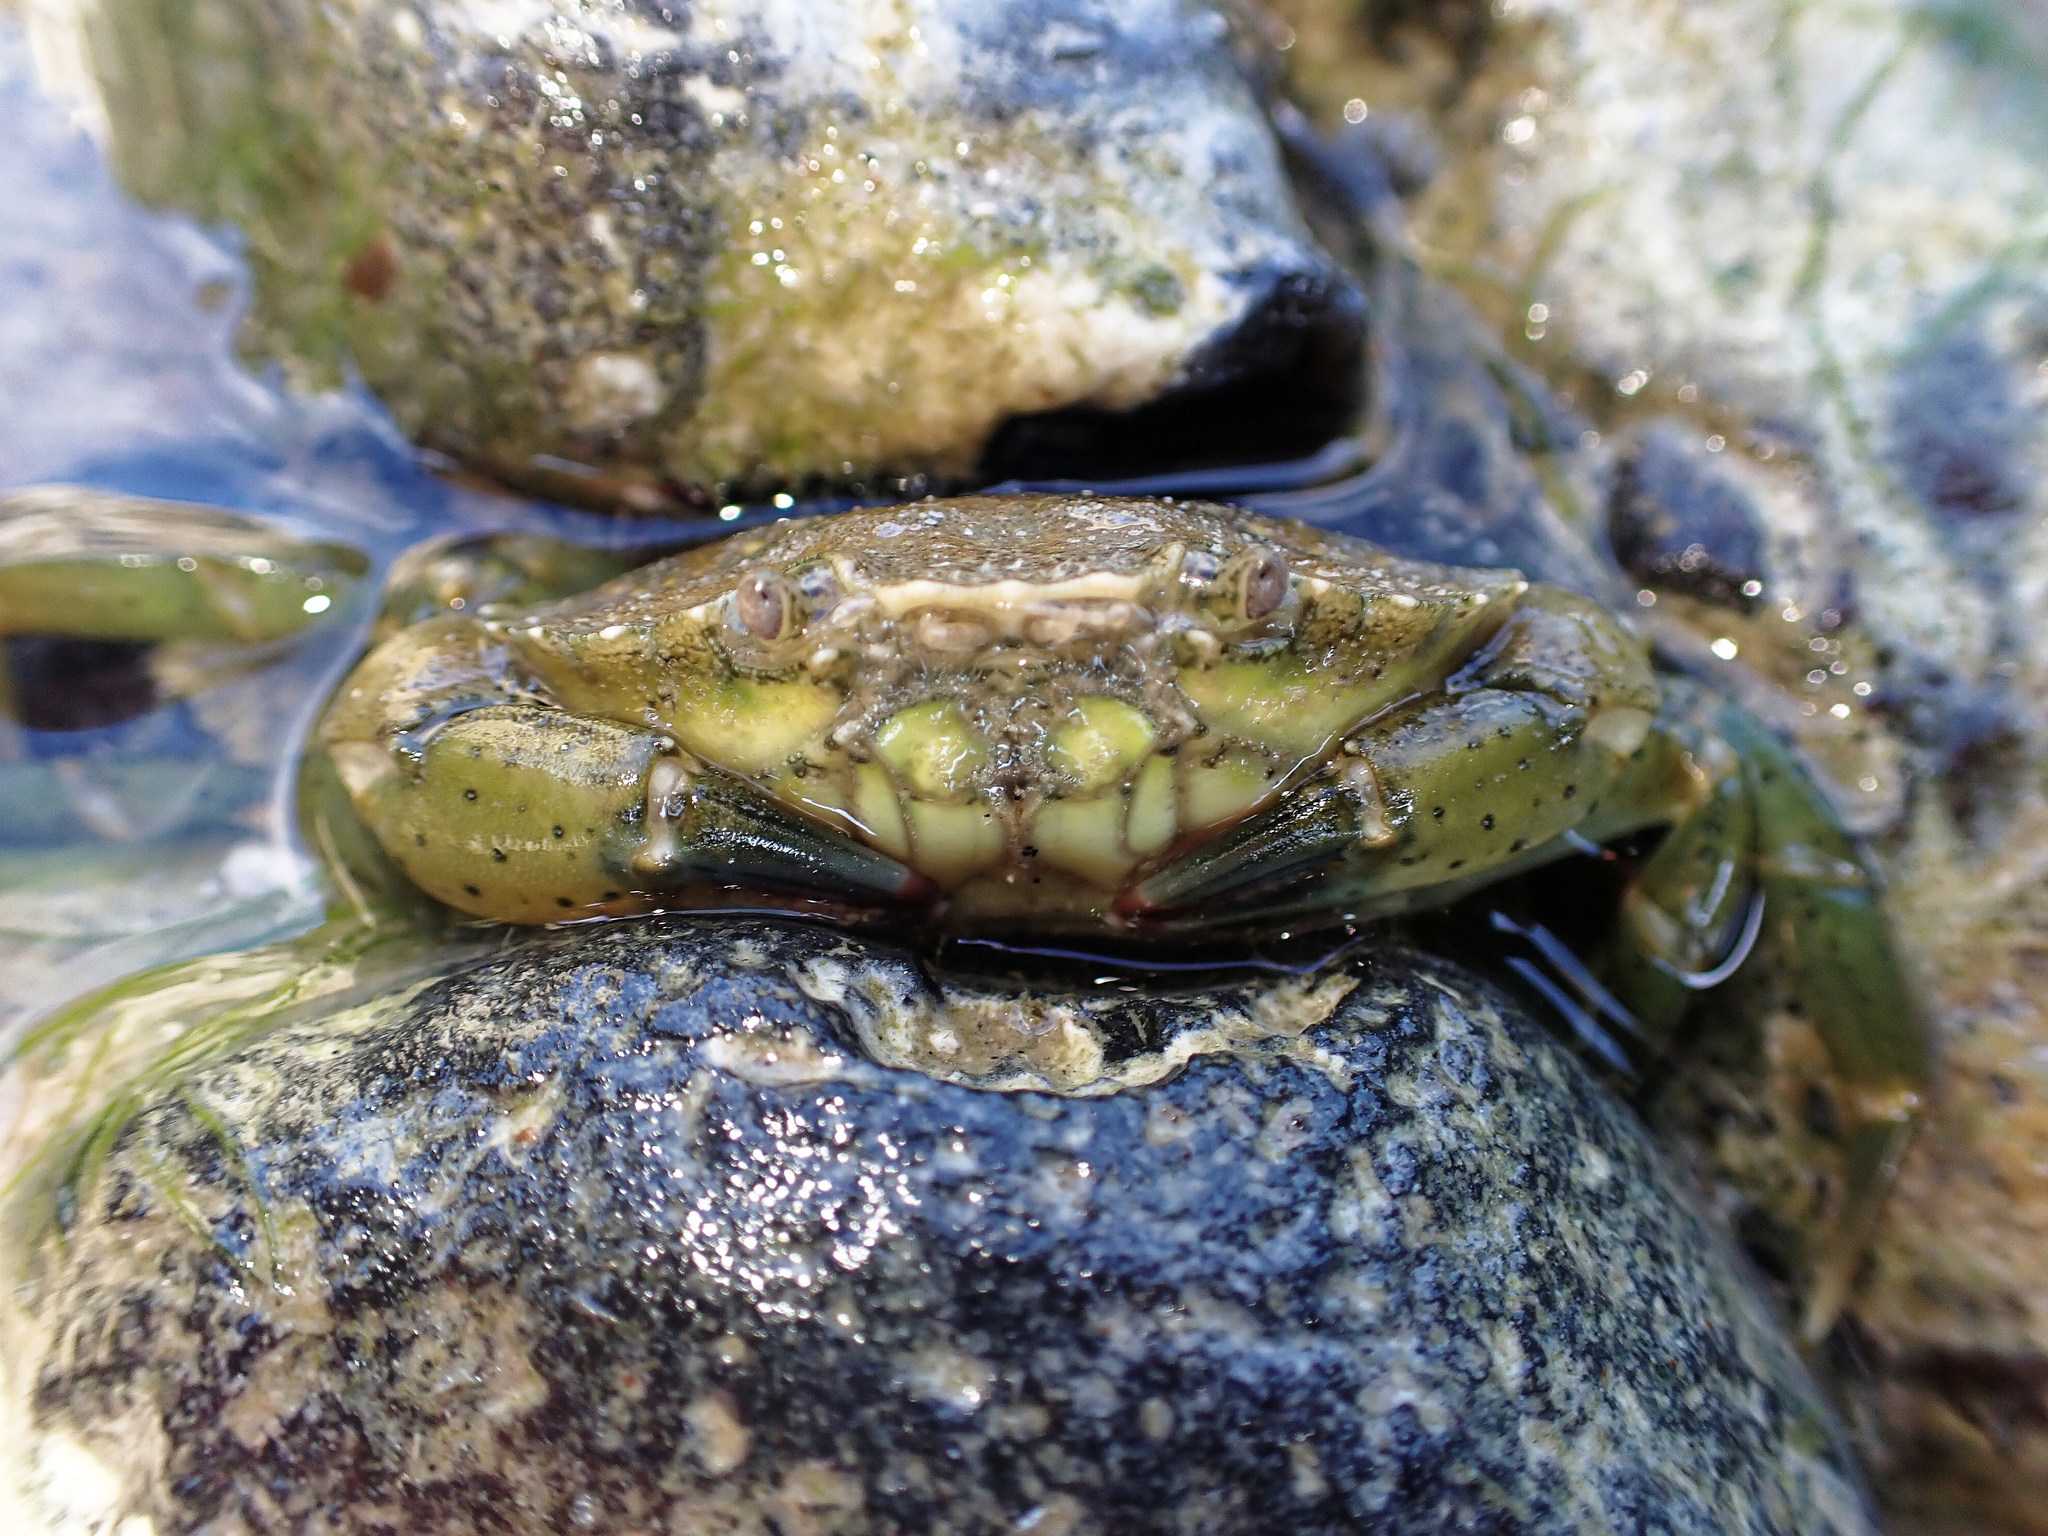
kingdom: Animalia
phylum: Arthropoda
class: Malacostraca
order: Decapoda
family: Carcinidae
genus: Carcinus
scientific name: Carcinus maenas
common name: European green crab
